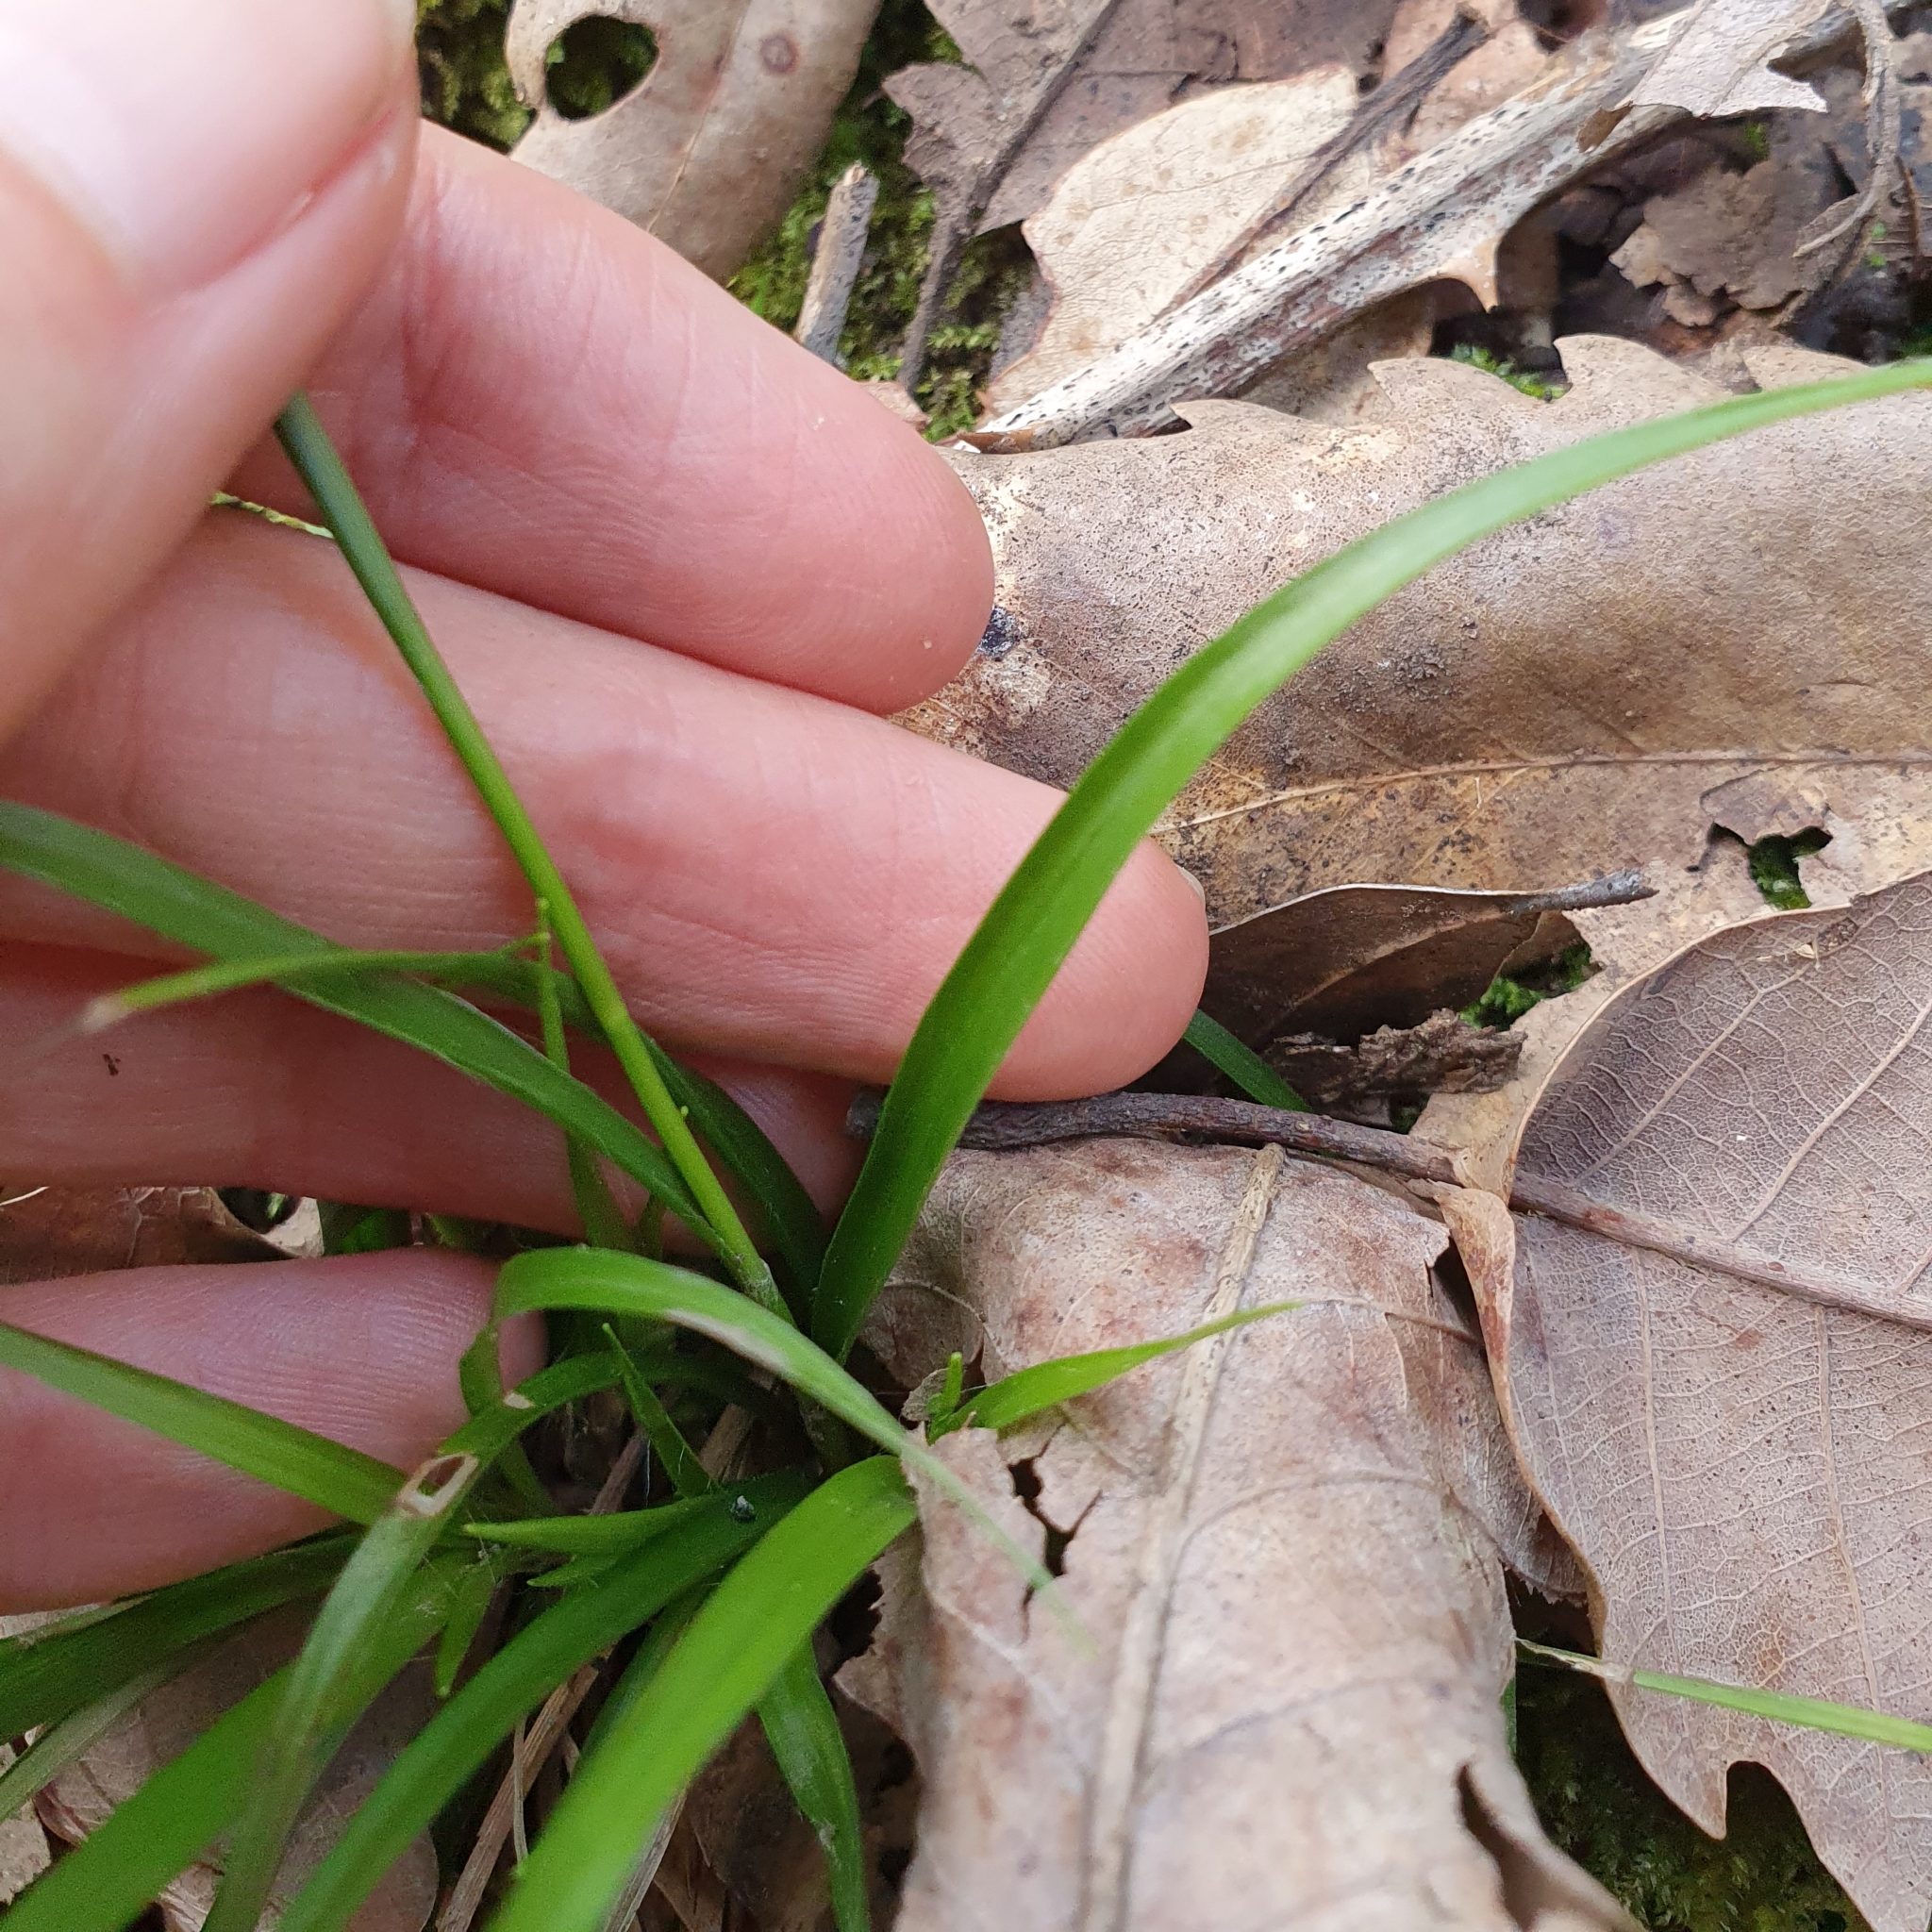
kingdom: Plantae
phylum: Tracheophyta
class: Liliopsida
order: Poales
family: Juncaceae
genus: Luzula
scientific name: Luzula forsteri
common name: Southern wood-rush
